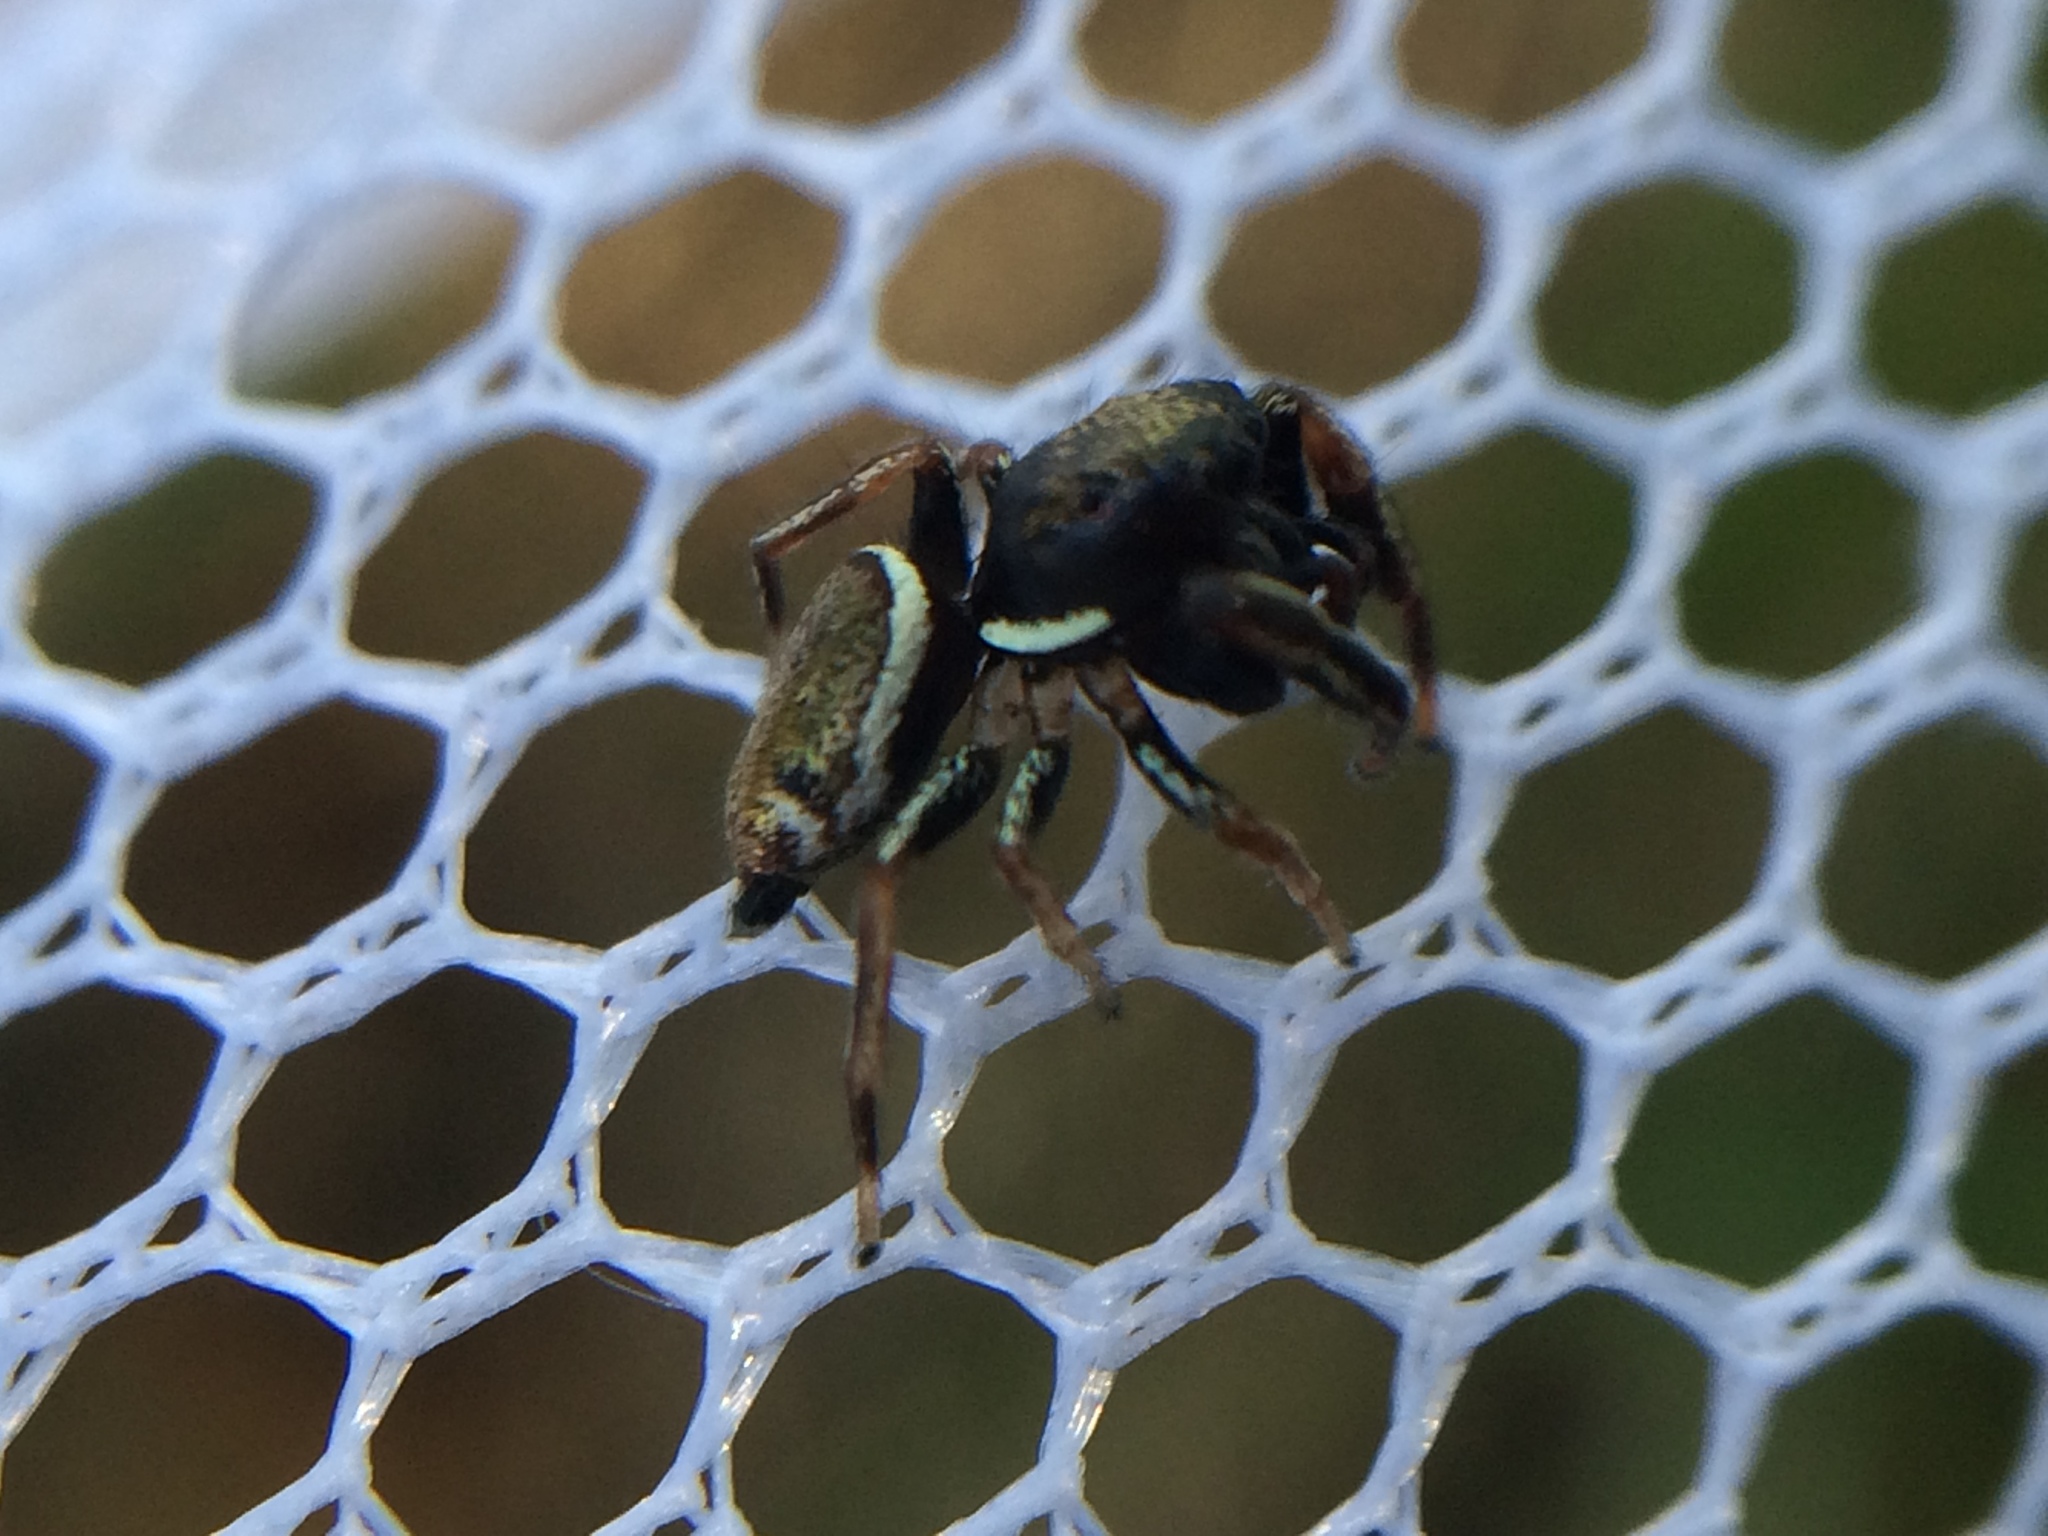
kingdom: Animalia
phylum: Arthropoda
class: Arachnida
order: Araneae
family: Salticidae
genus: Sassacus
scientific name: Sassacus vitis
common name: Jumping spiders
